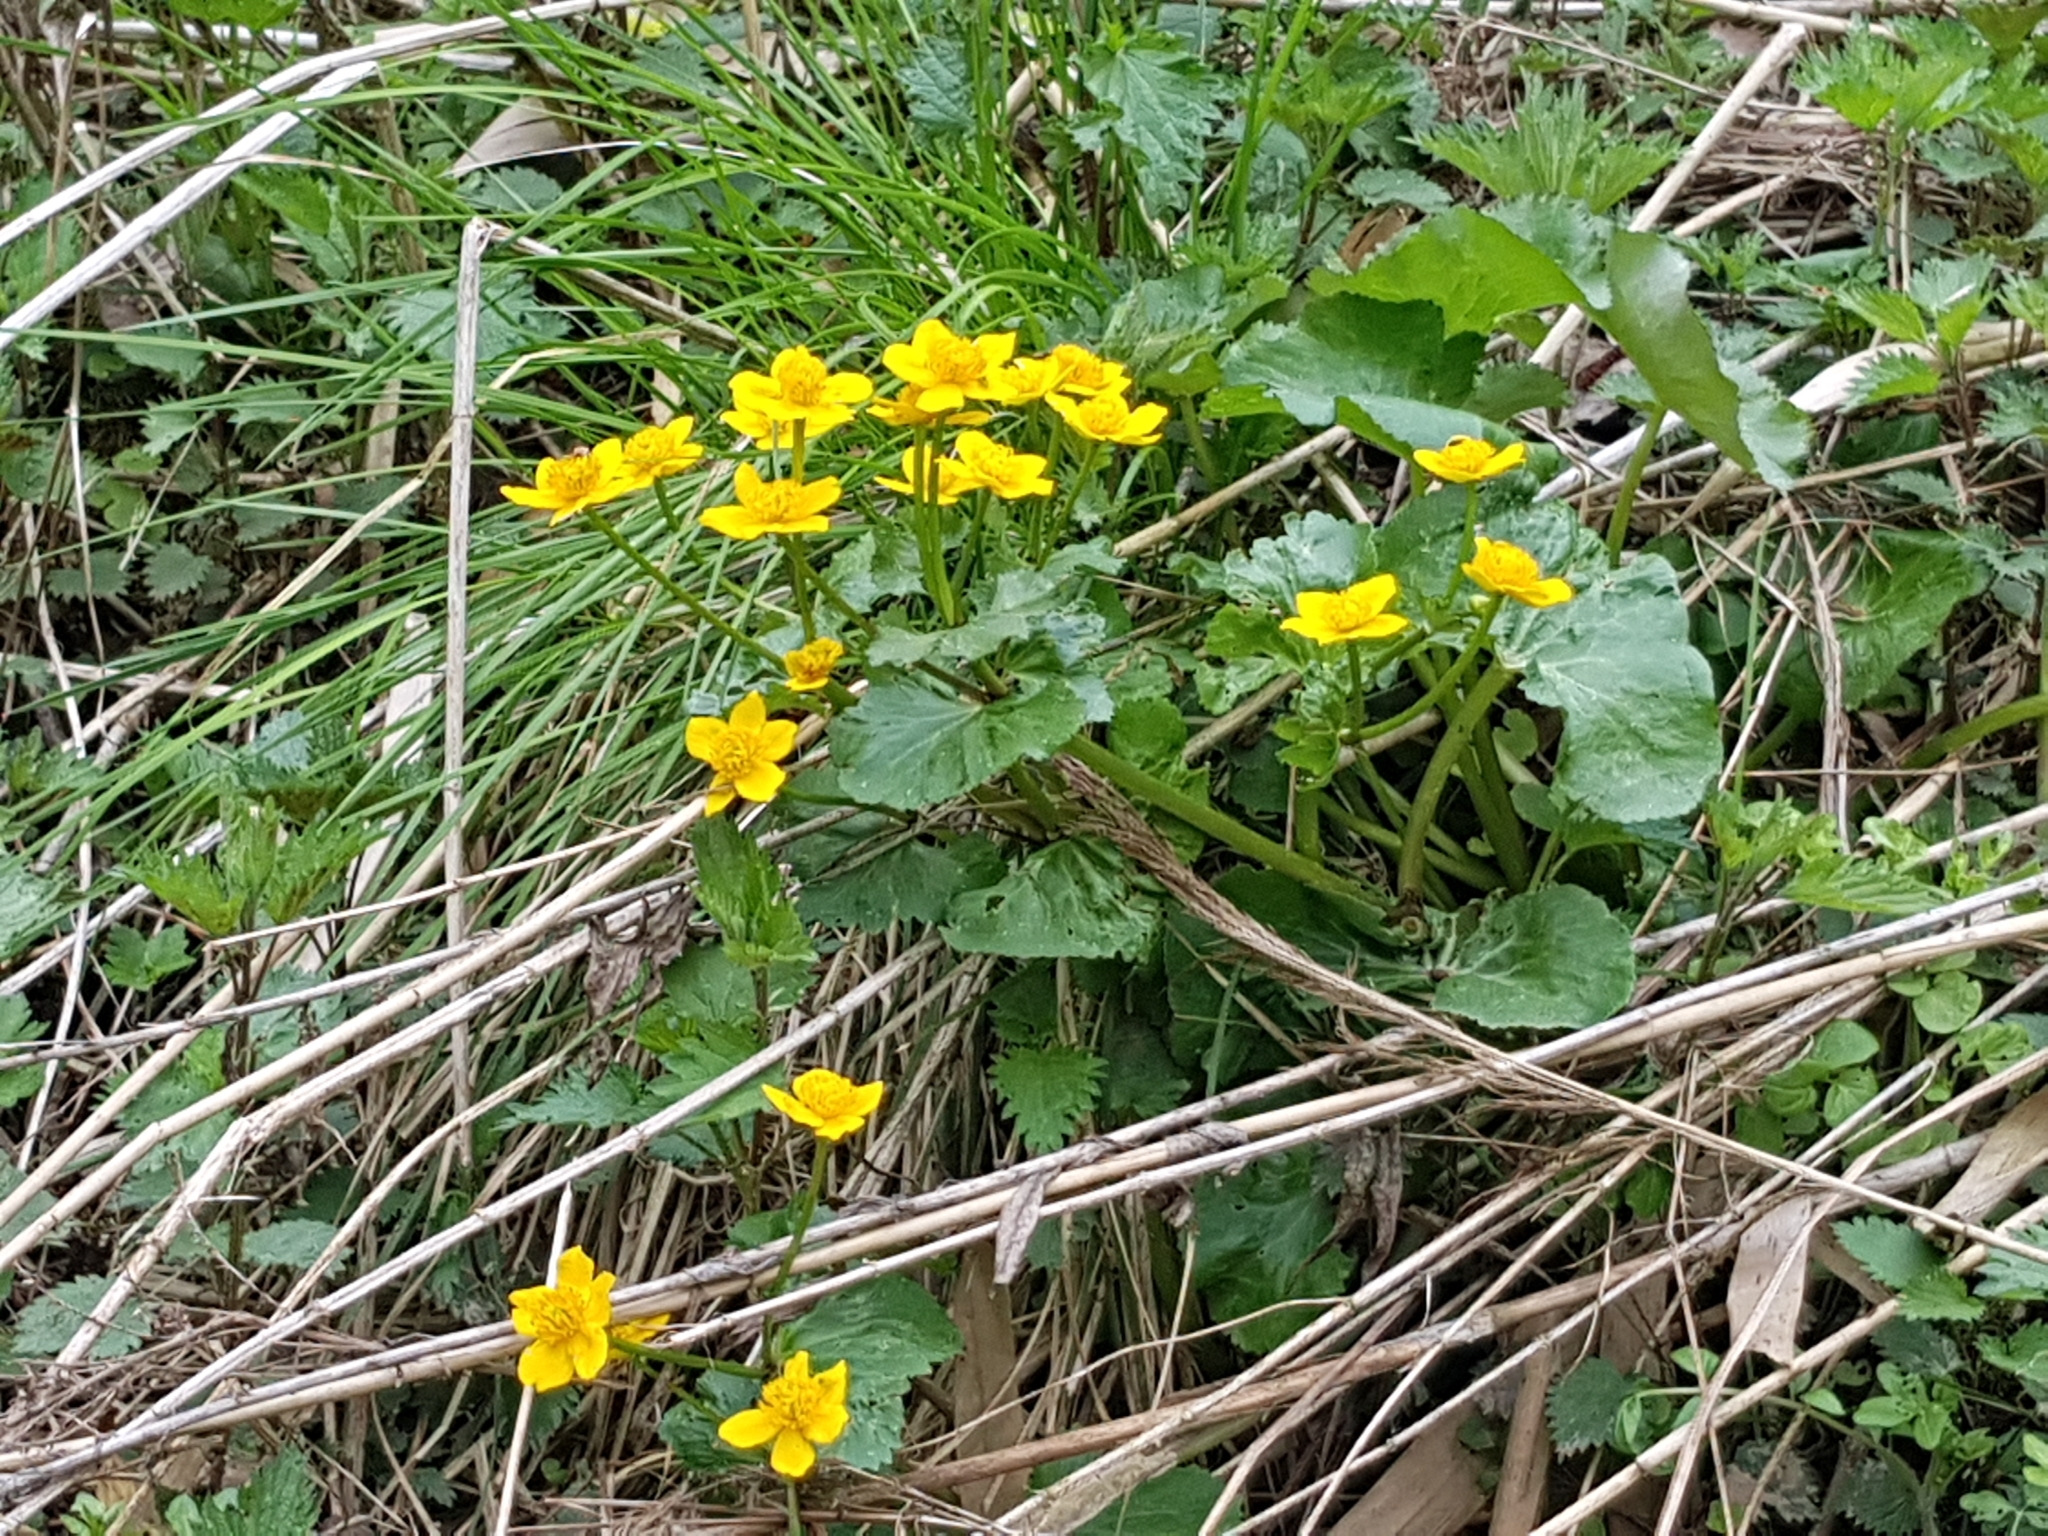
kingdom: Plantae
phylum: Tracheophyta
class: Magnoliopsida
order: Ranunculales
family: Ranunculaceae
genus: Caltha
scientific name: Caltha palustris
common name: Marsh marigold
